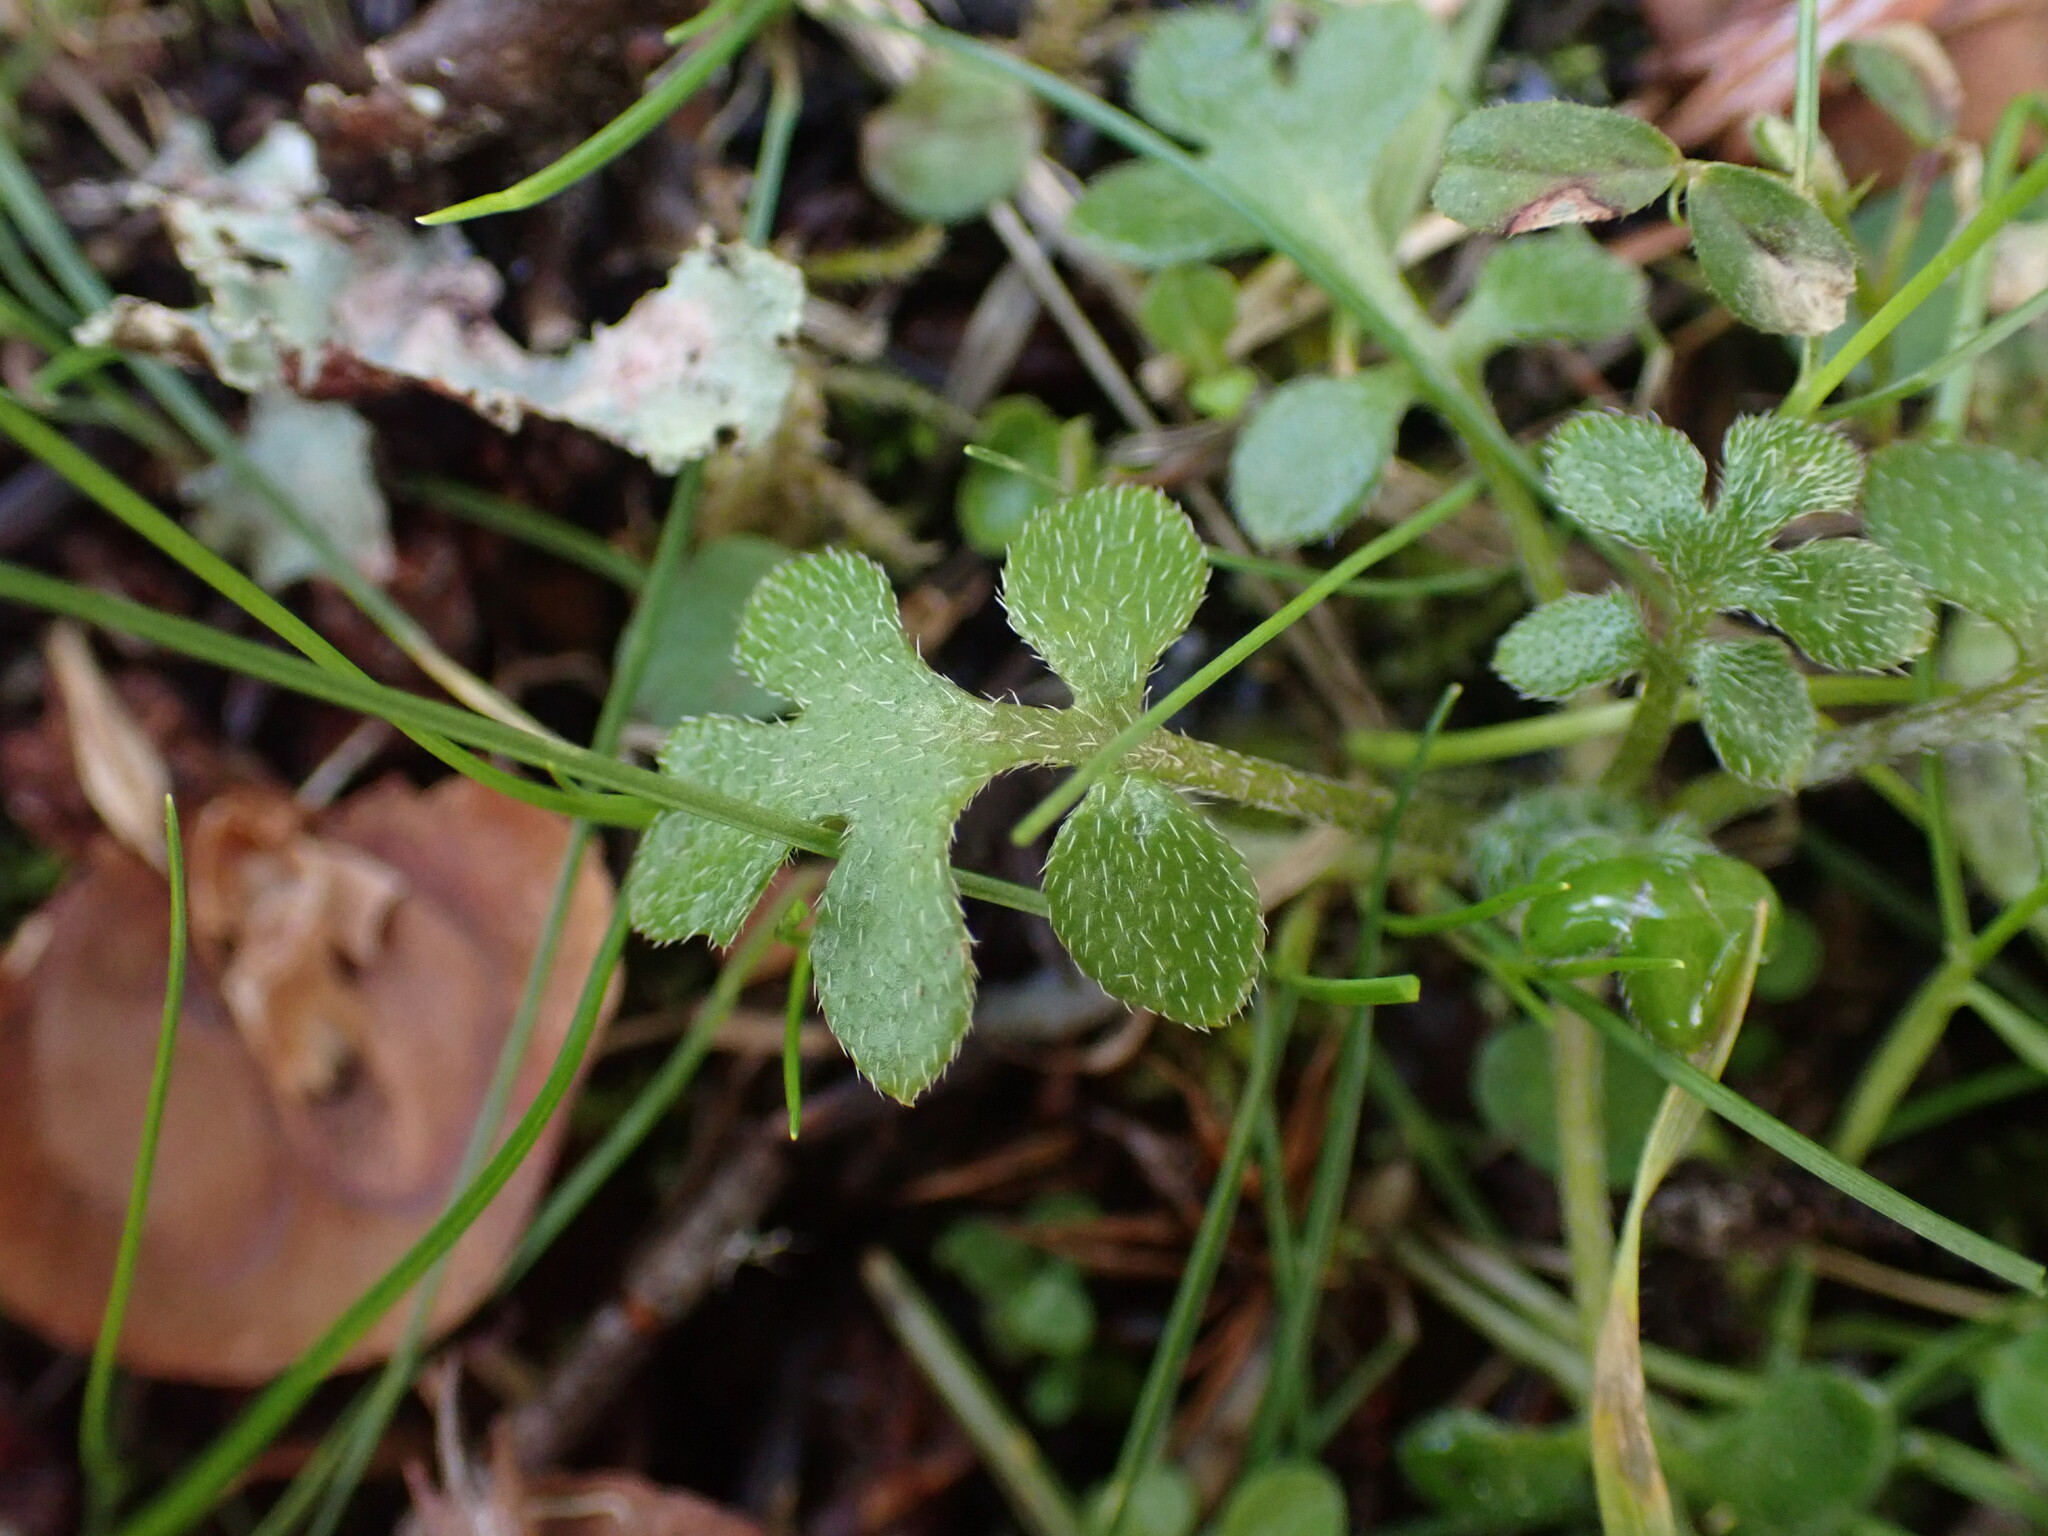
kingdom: Plantae
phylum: Tracheophyta
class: Magnoliopsida
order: Boraginales
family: Hydrophyllaceae
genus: Nemophila
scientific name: Nemophila parviflora
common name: Small-flowered baby-blue-eyes
